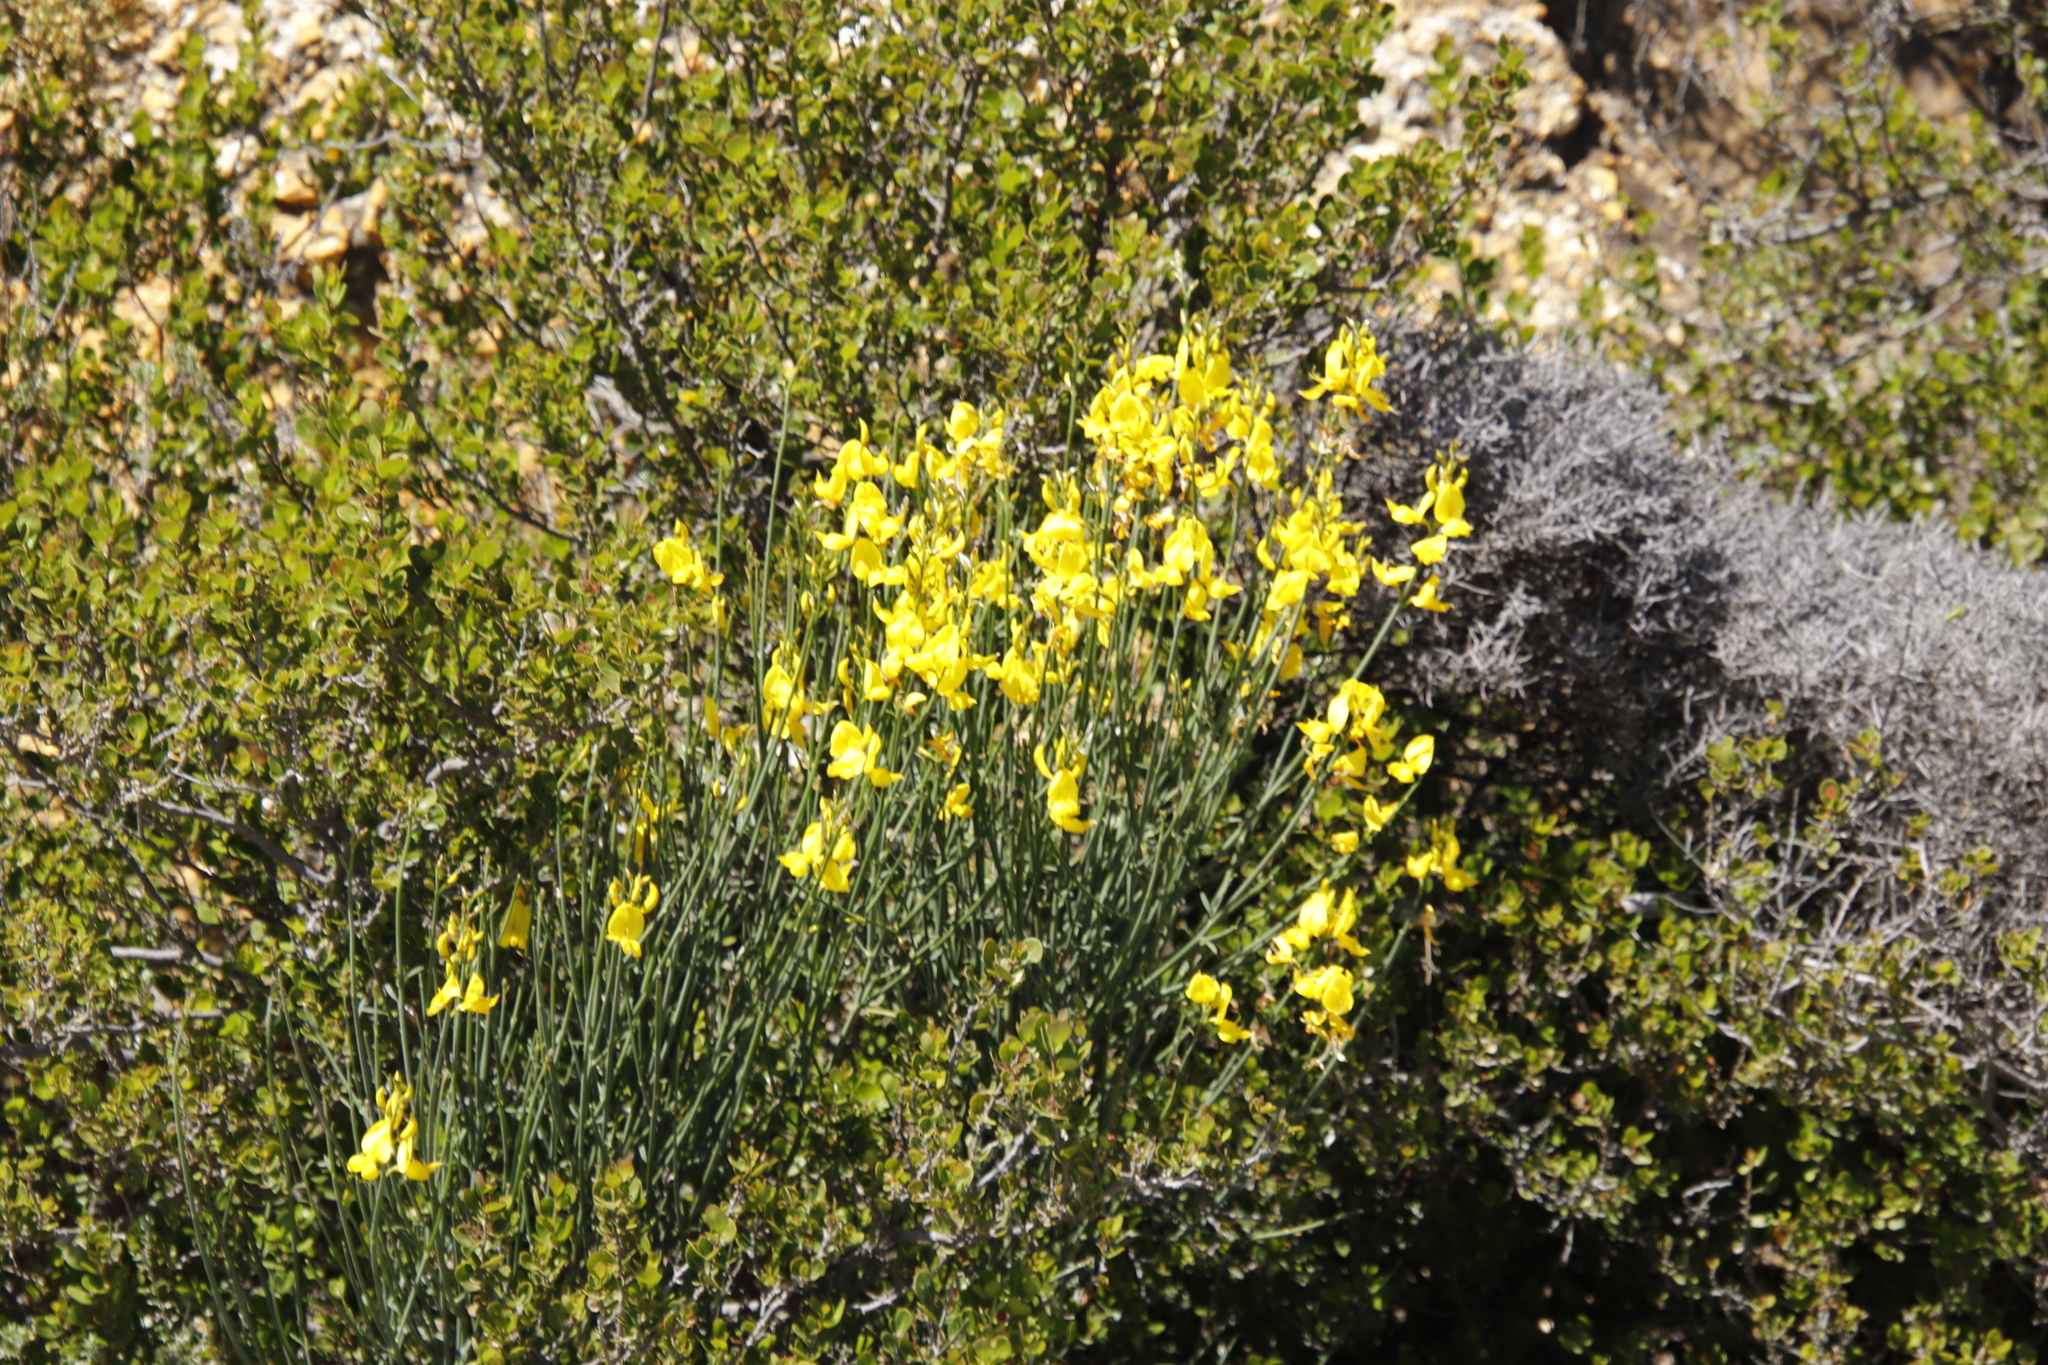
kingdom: Plantae
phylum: Tracheophyta
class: Magnoliopsida
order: Fabales
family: Fabaceae
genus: Spartium
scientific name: Spartium junceum
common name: Spanish broom
